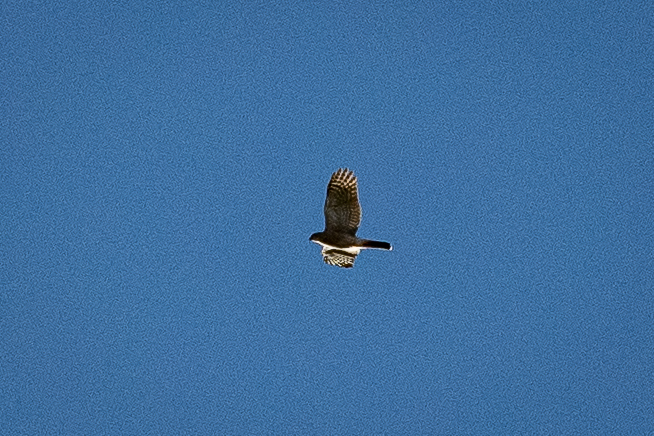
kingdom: Animalia
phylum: Chordata
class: Aves
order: Accipitriformes
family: Accipitridae
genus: Accipiter
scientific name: Accipiter tachiro
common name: African goshawk
